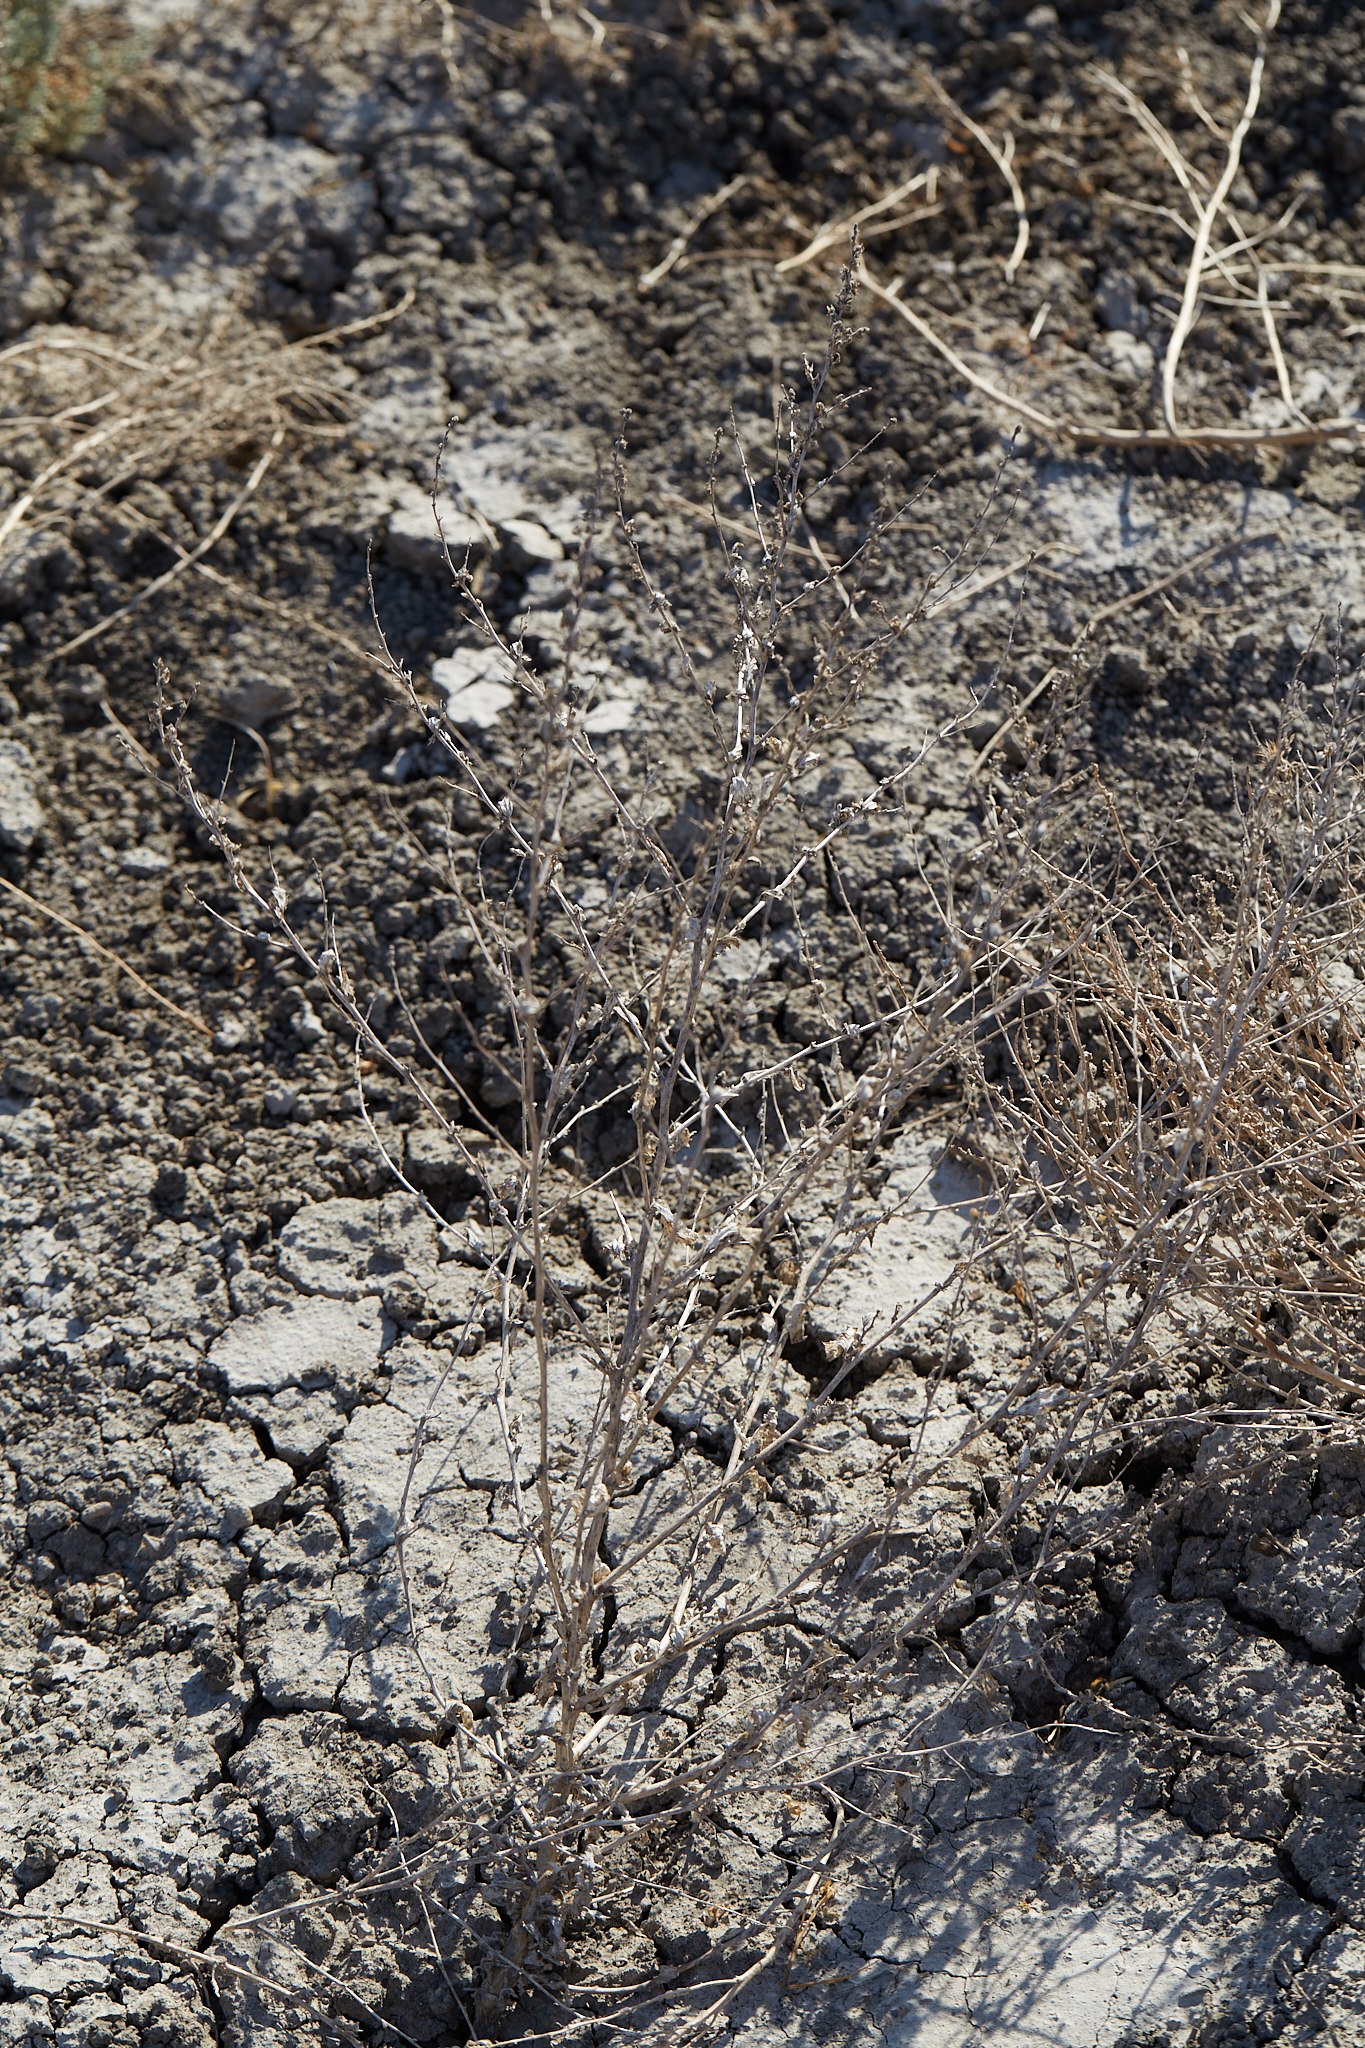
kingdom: Plantae
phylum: Tracheophyta
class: Magnoliopsida
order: Caryophyllales
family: Amaranthaceae
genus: Atriplex
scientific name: Atriplex rosea
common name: Tumbling saltweed
